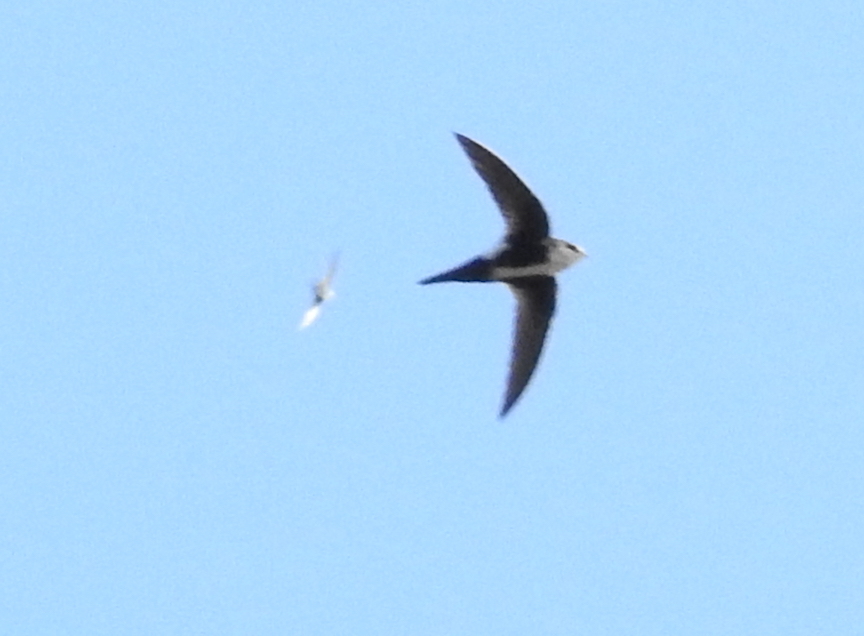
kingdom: Animalia
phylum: Chordata
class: Aves
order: Apodiformes
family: Apodidae
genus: Aeronautes
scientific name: Aeronautes saxatalis
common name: White-throated swift
